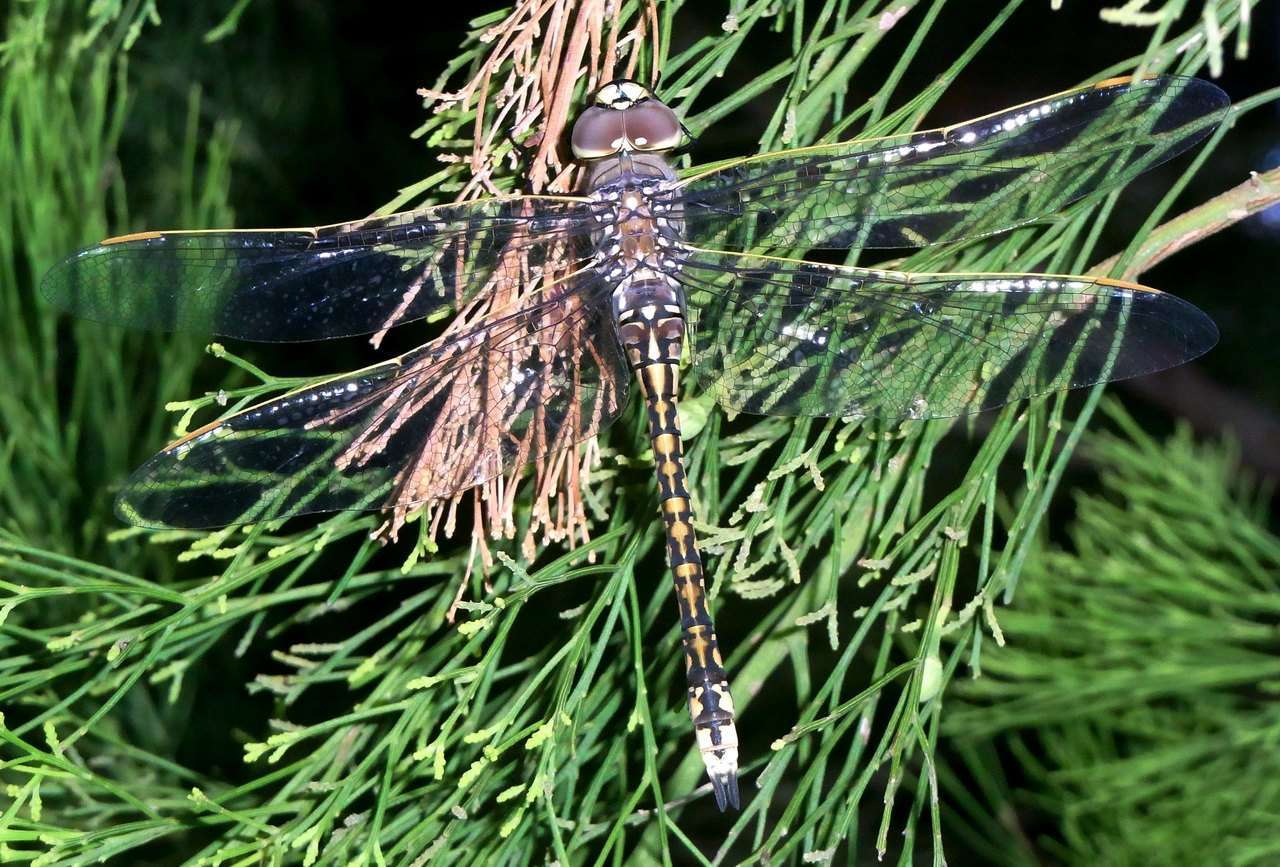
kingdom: Animalia
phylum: Arthropoda
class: Insecta
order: Odonata
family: Aeshnidae
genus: Anax
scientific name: Anax papuensis
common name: Australian emperor
